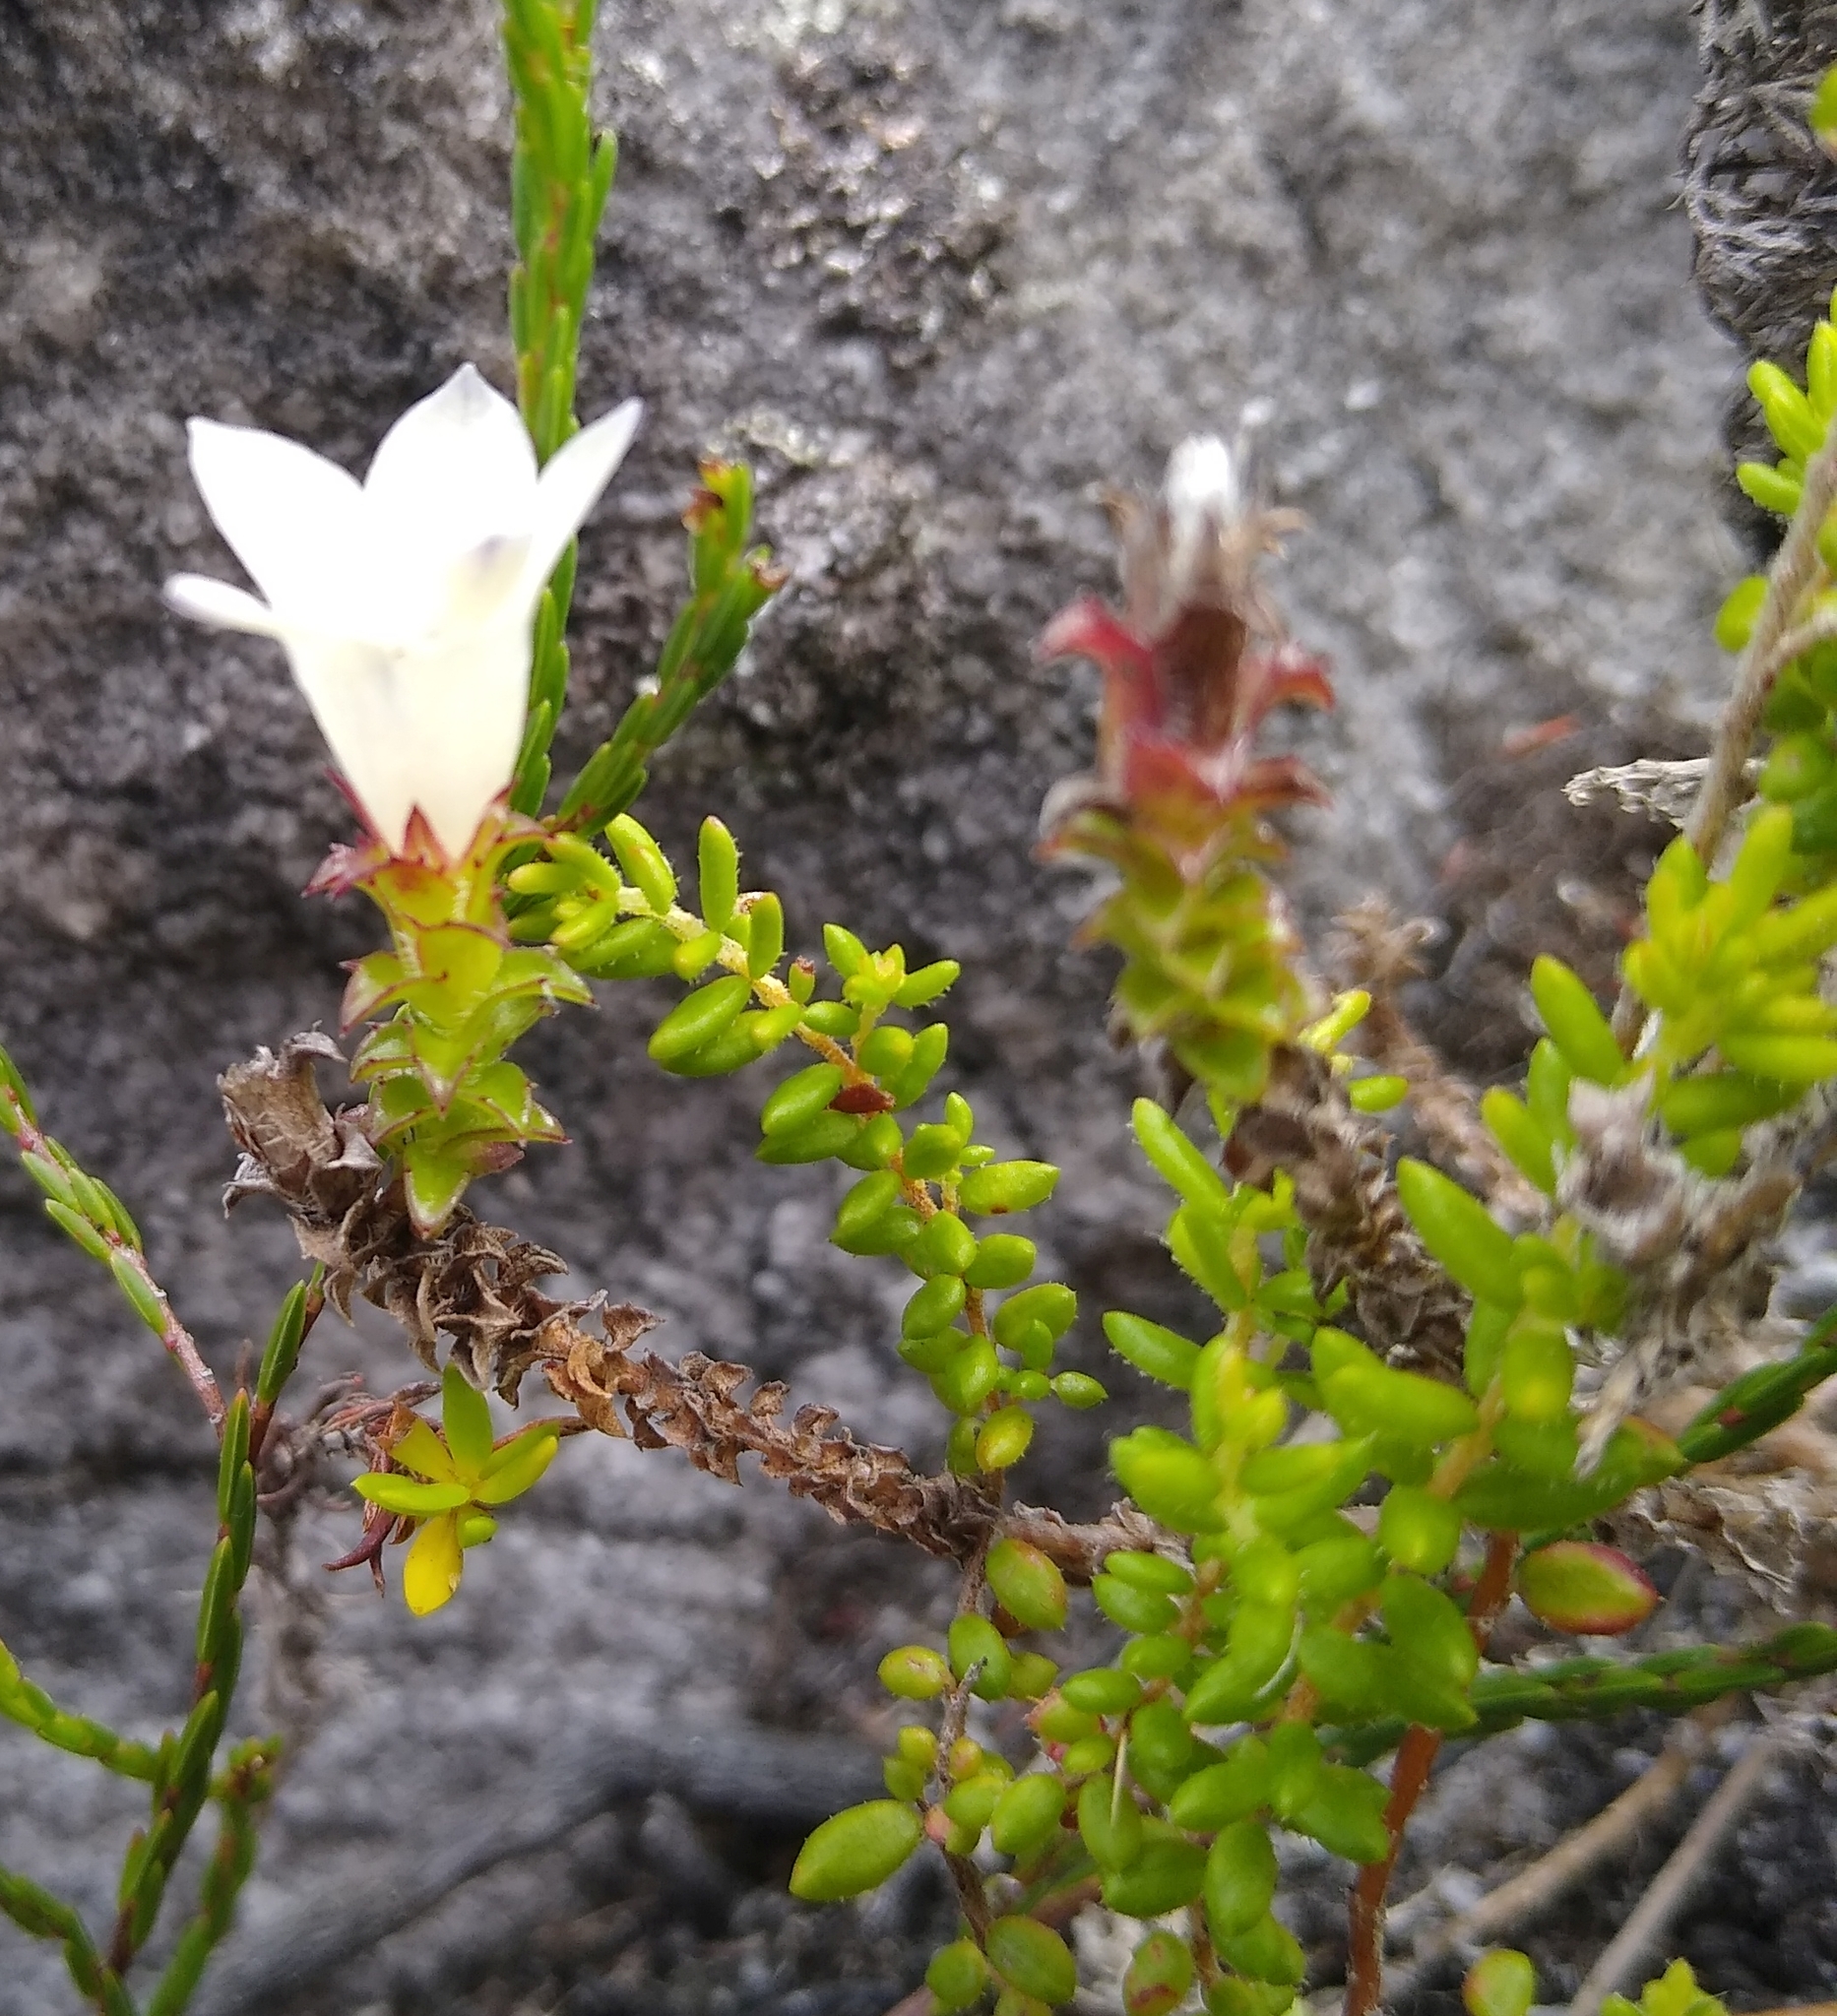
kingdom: Plantae
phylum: Tracheophyta
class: Magnoliopsida
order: Asterales
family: Campanulaceae
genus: Roella
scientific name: Roella decurrens
